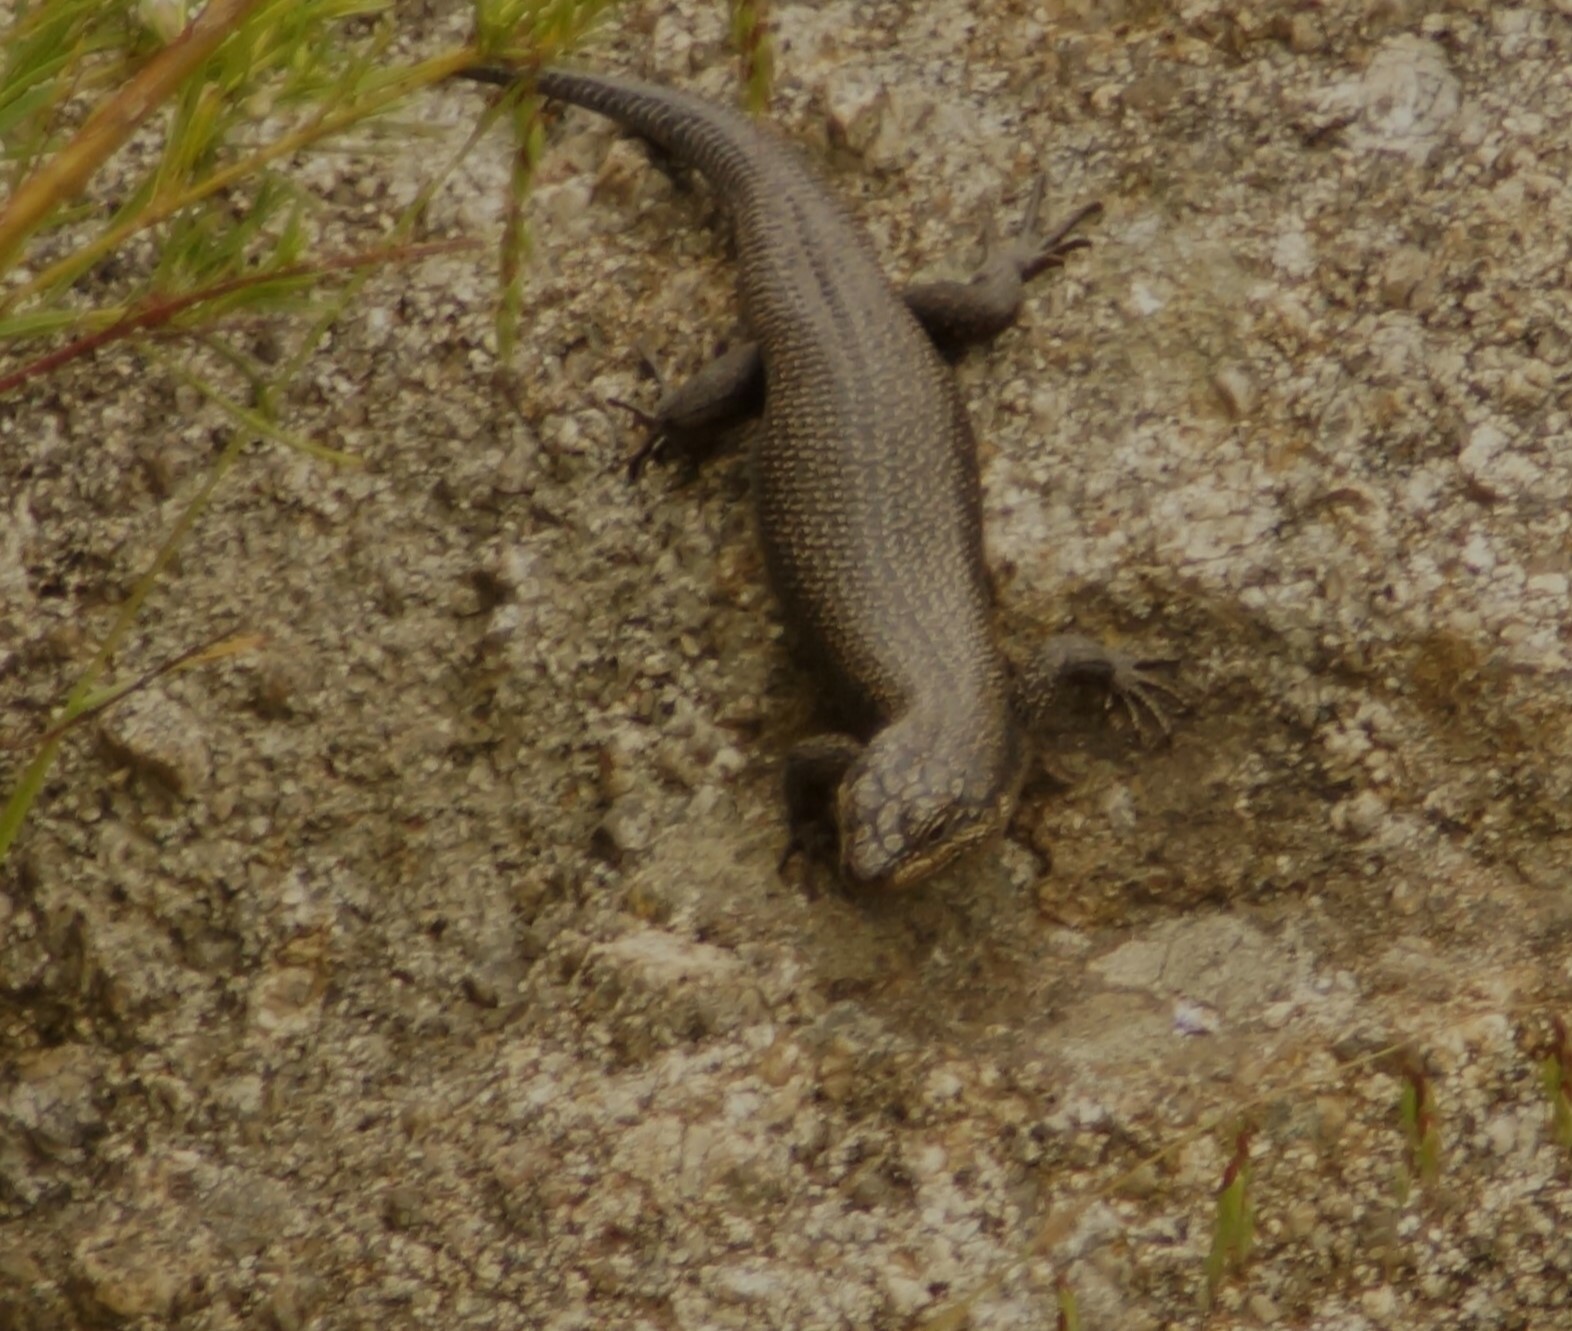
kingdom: Animalia
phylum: Chordata
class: Squamata
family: Scincidae
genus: Egernia
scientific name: Egernia saxatilis
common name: Black crevice-skink
